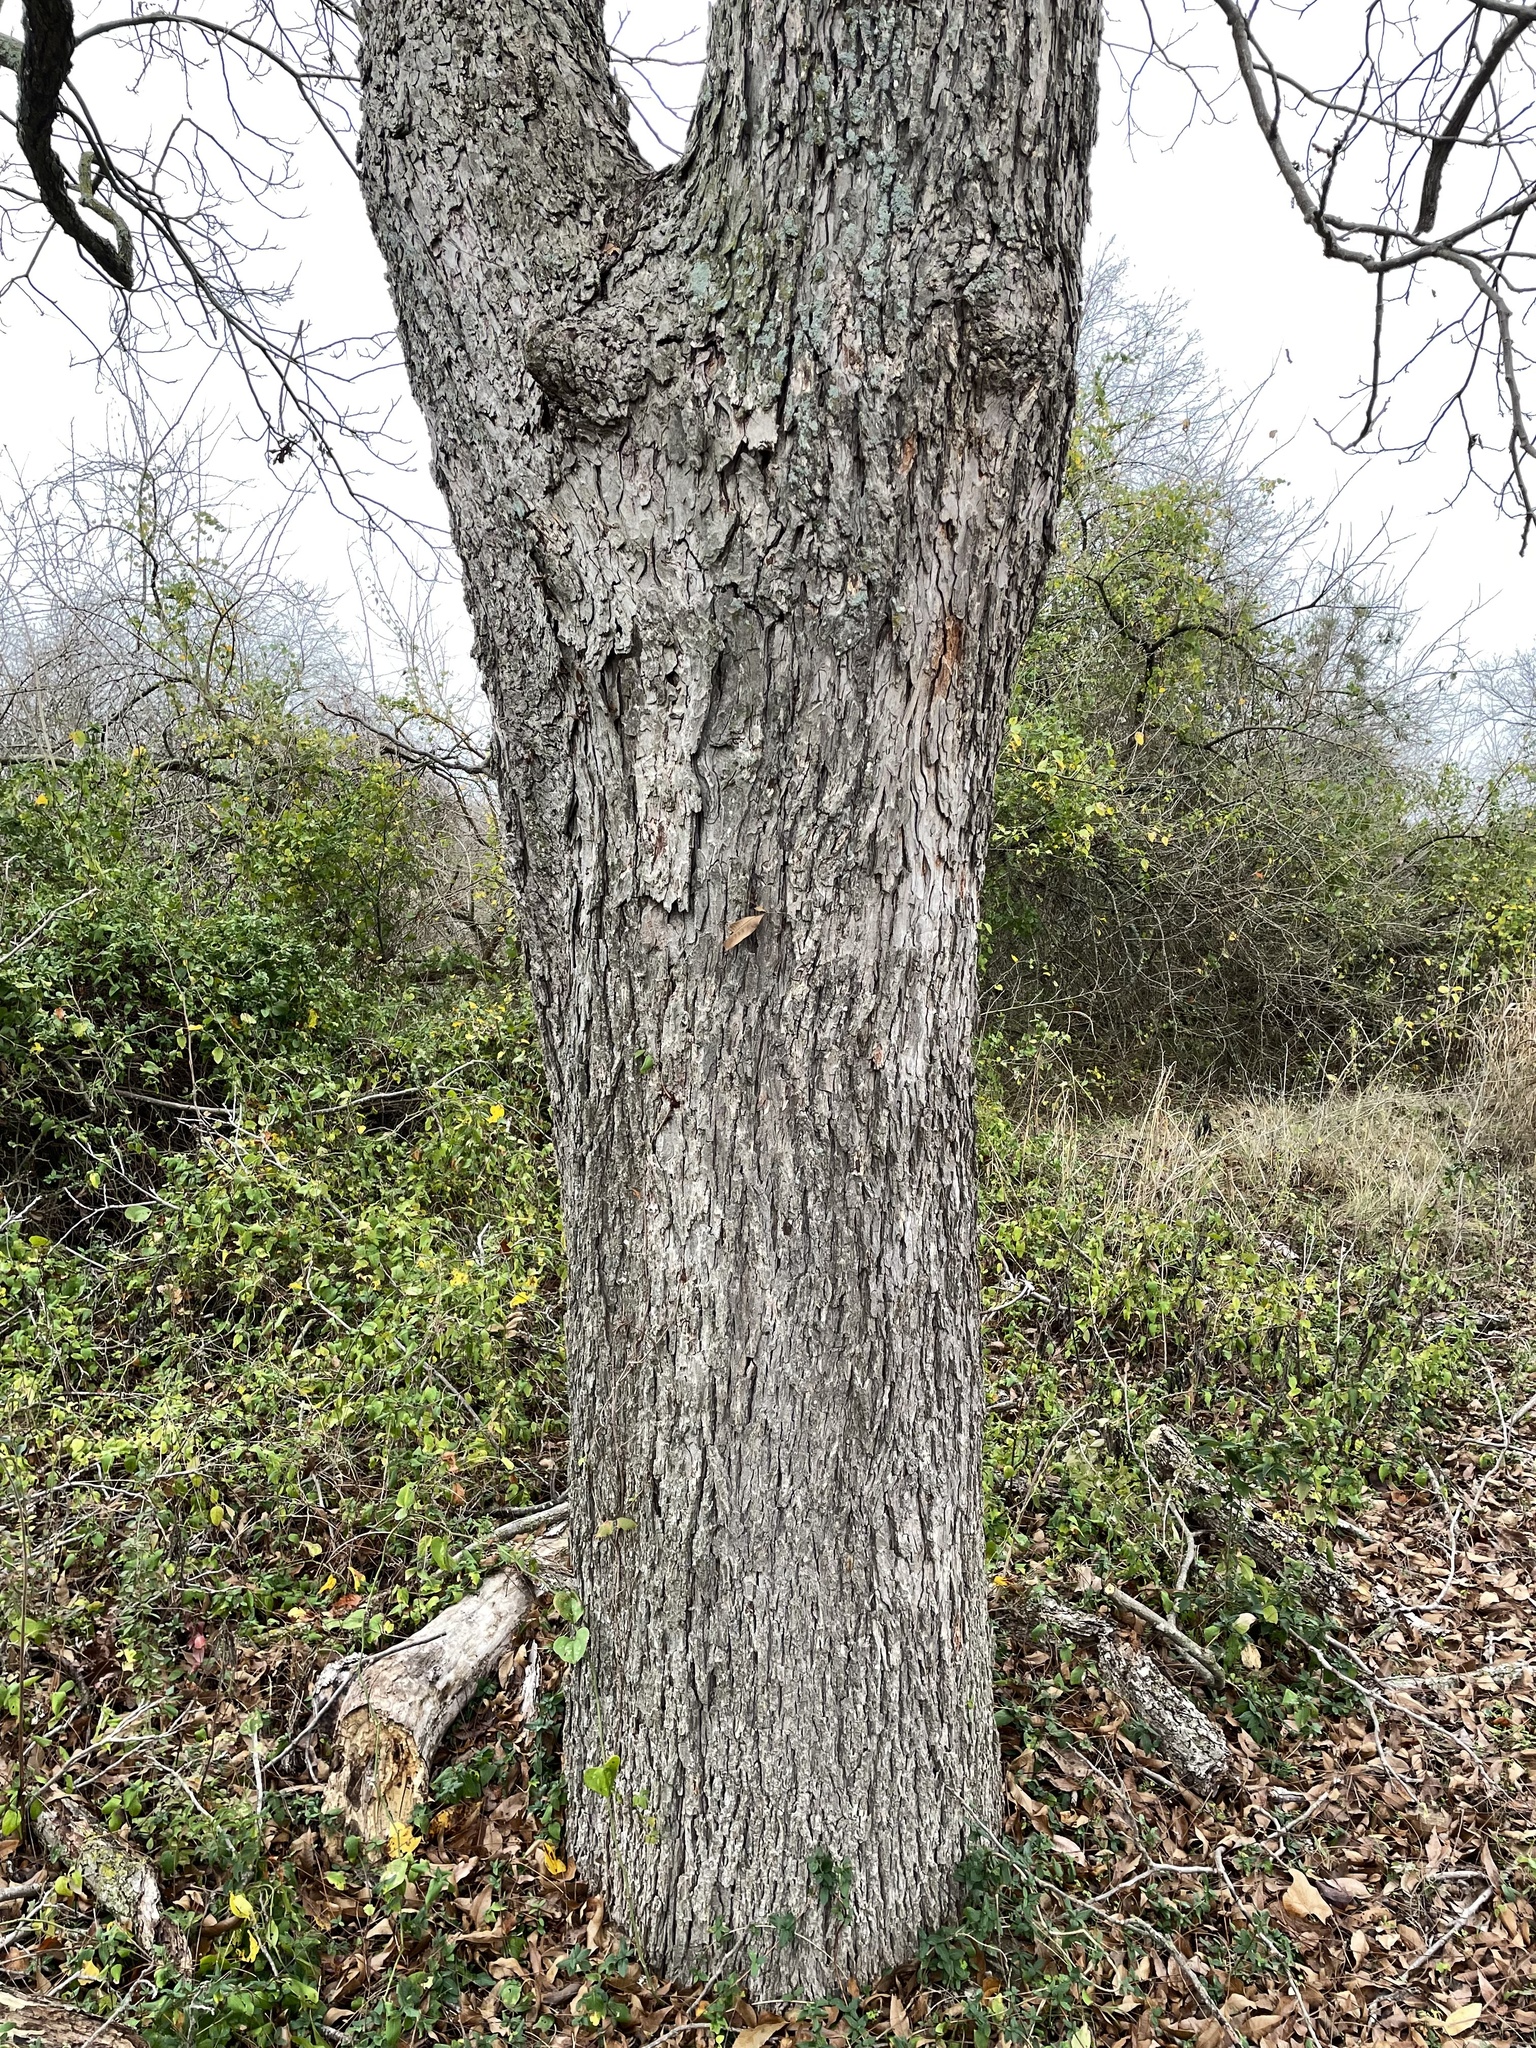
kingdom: Plantae
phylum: Tracheophyta
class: Magnoliopsida
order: Fagales
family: Juglandaceae
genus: Carya
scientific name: Carya illinoinensis
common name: Pecan
